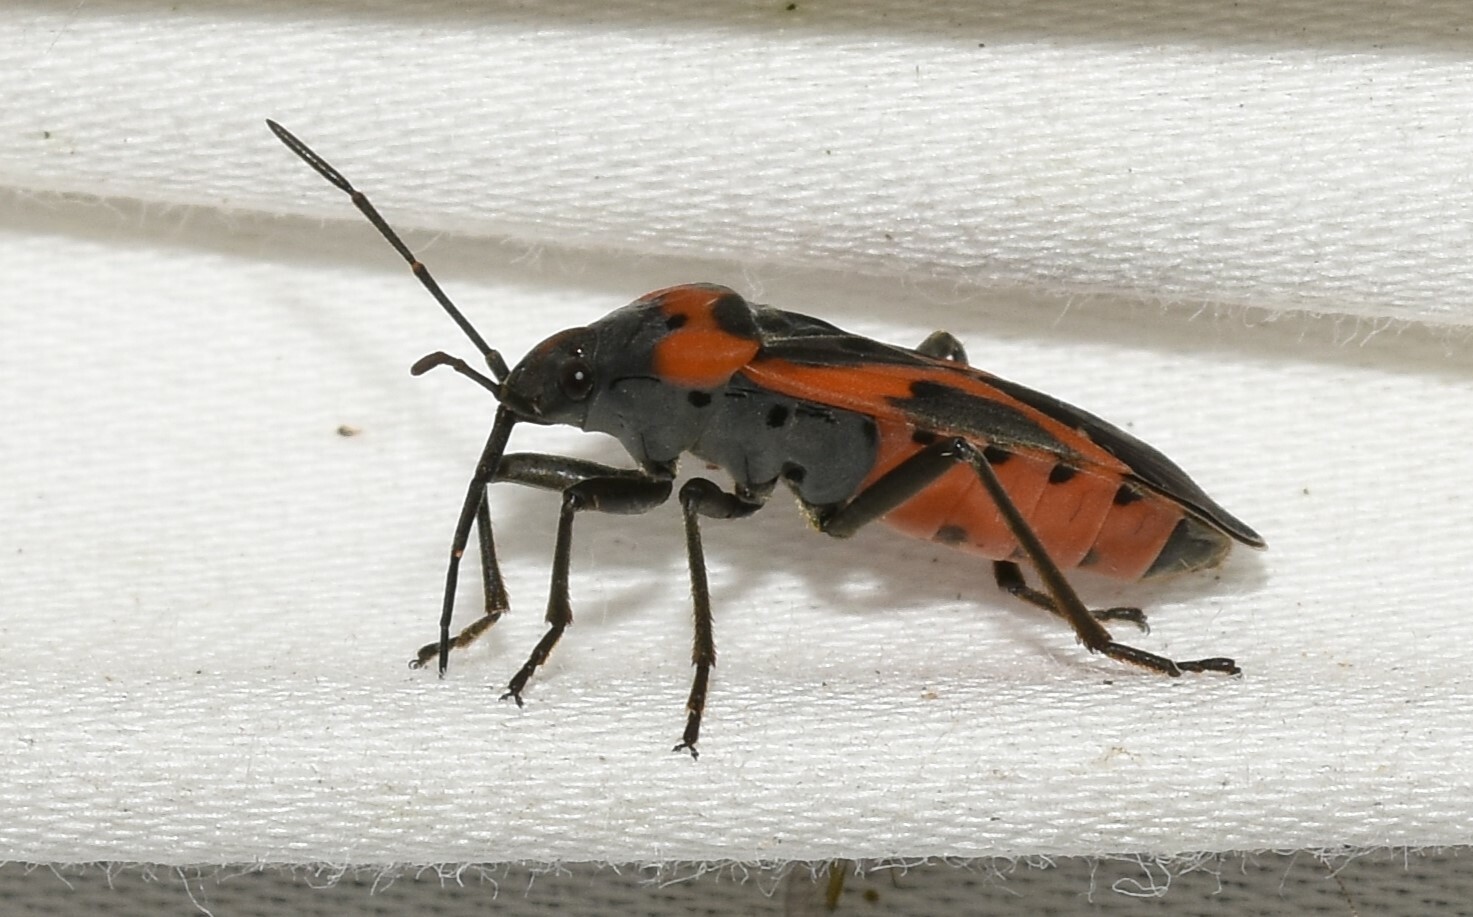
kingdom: Animalia
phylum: Arthropoda
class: Insecta
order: Hemiptera
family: Lygaeidae
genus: Lygaeus
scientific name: Lygaeus kalmii
